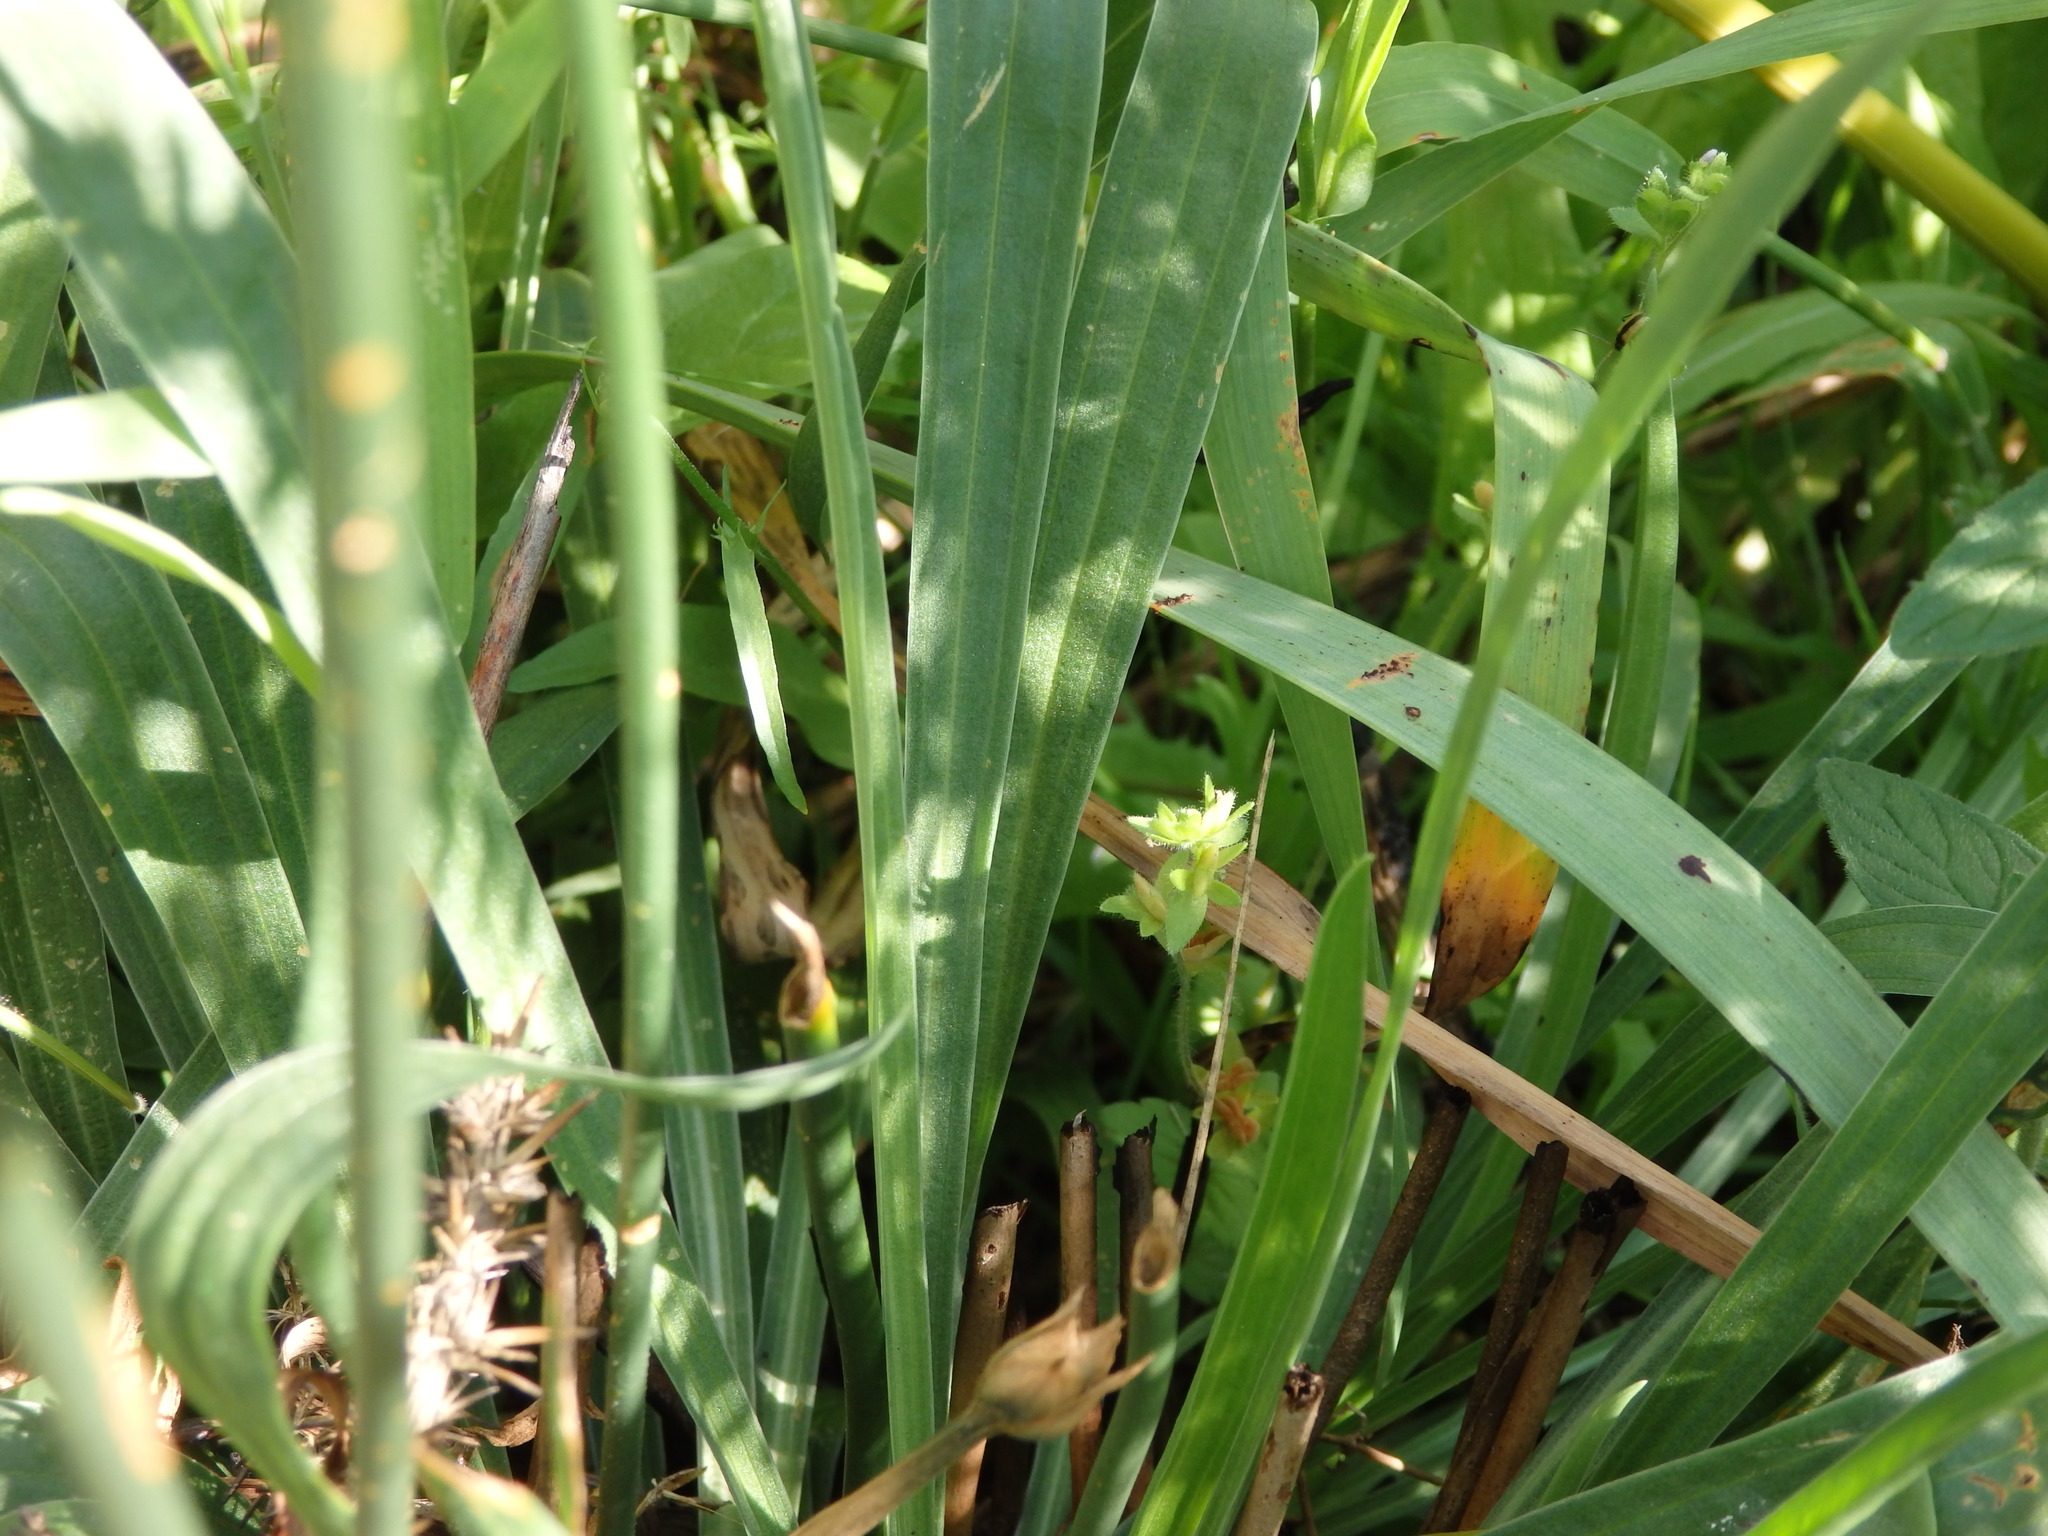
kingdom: Plantae
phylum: Tracheophyta
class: Magnoliopsida
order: Caryophyllales
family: Plumbaginaceae
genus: Armeria
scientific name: Armeria beirana
